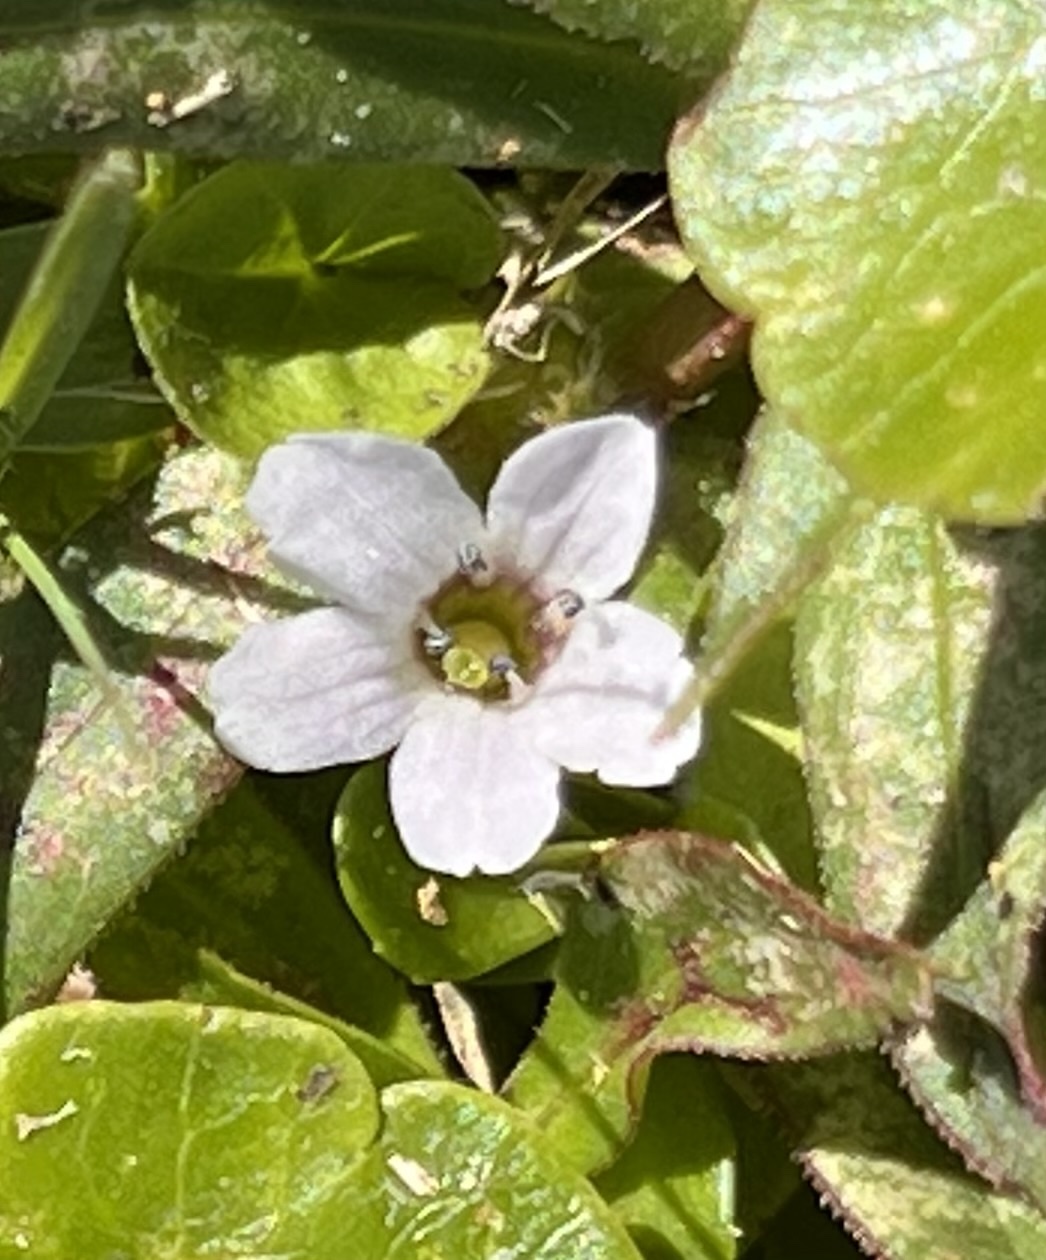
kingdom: Plantae
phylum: Tracheophyta
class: Magnoliopsida
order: Lamiales
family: Plantaginaceae
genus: Bacopa
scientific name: Bacopa monnieri
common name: Indian-pennywort
